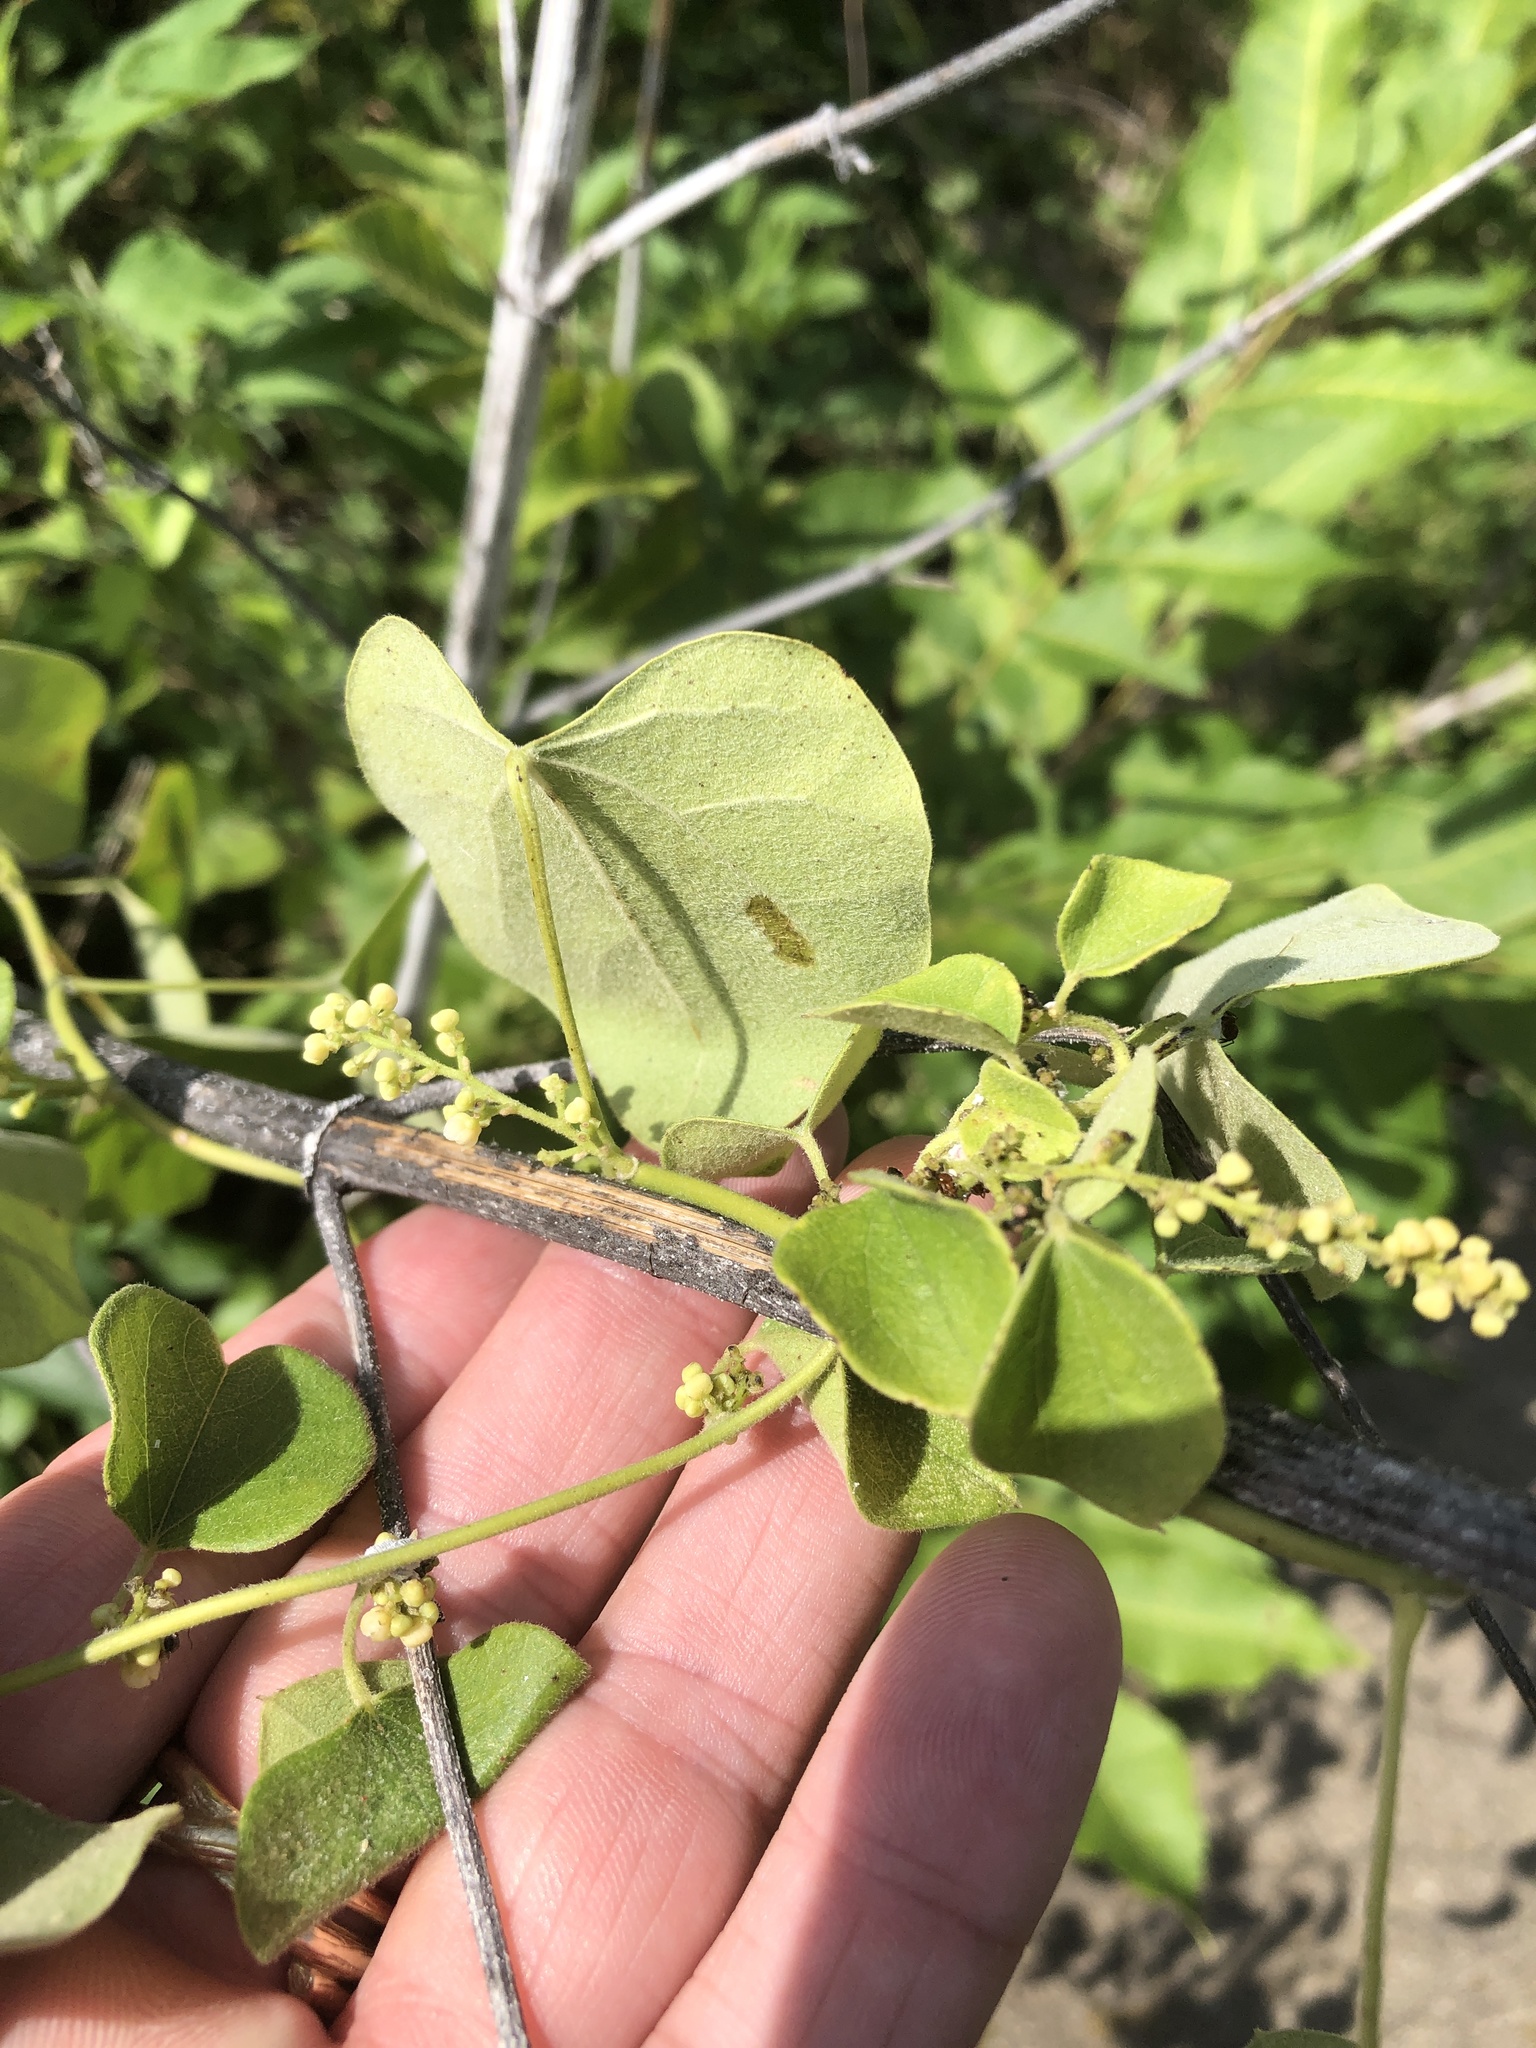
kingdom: Plantae
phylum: Tracheophyta
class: Magnoliopsida
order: Ranunculales
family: Menispermaceae
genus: Cocculus
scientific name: Cocculus carolinus
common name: Carolina moonseed
